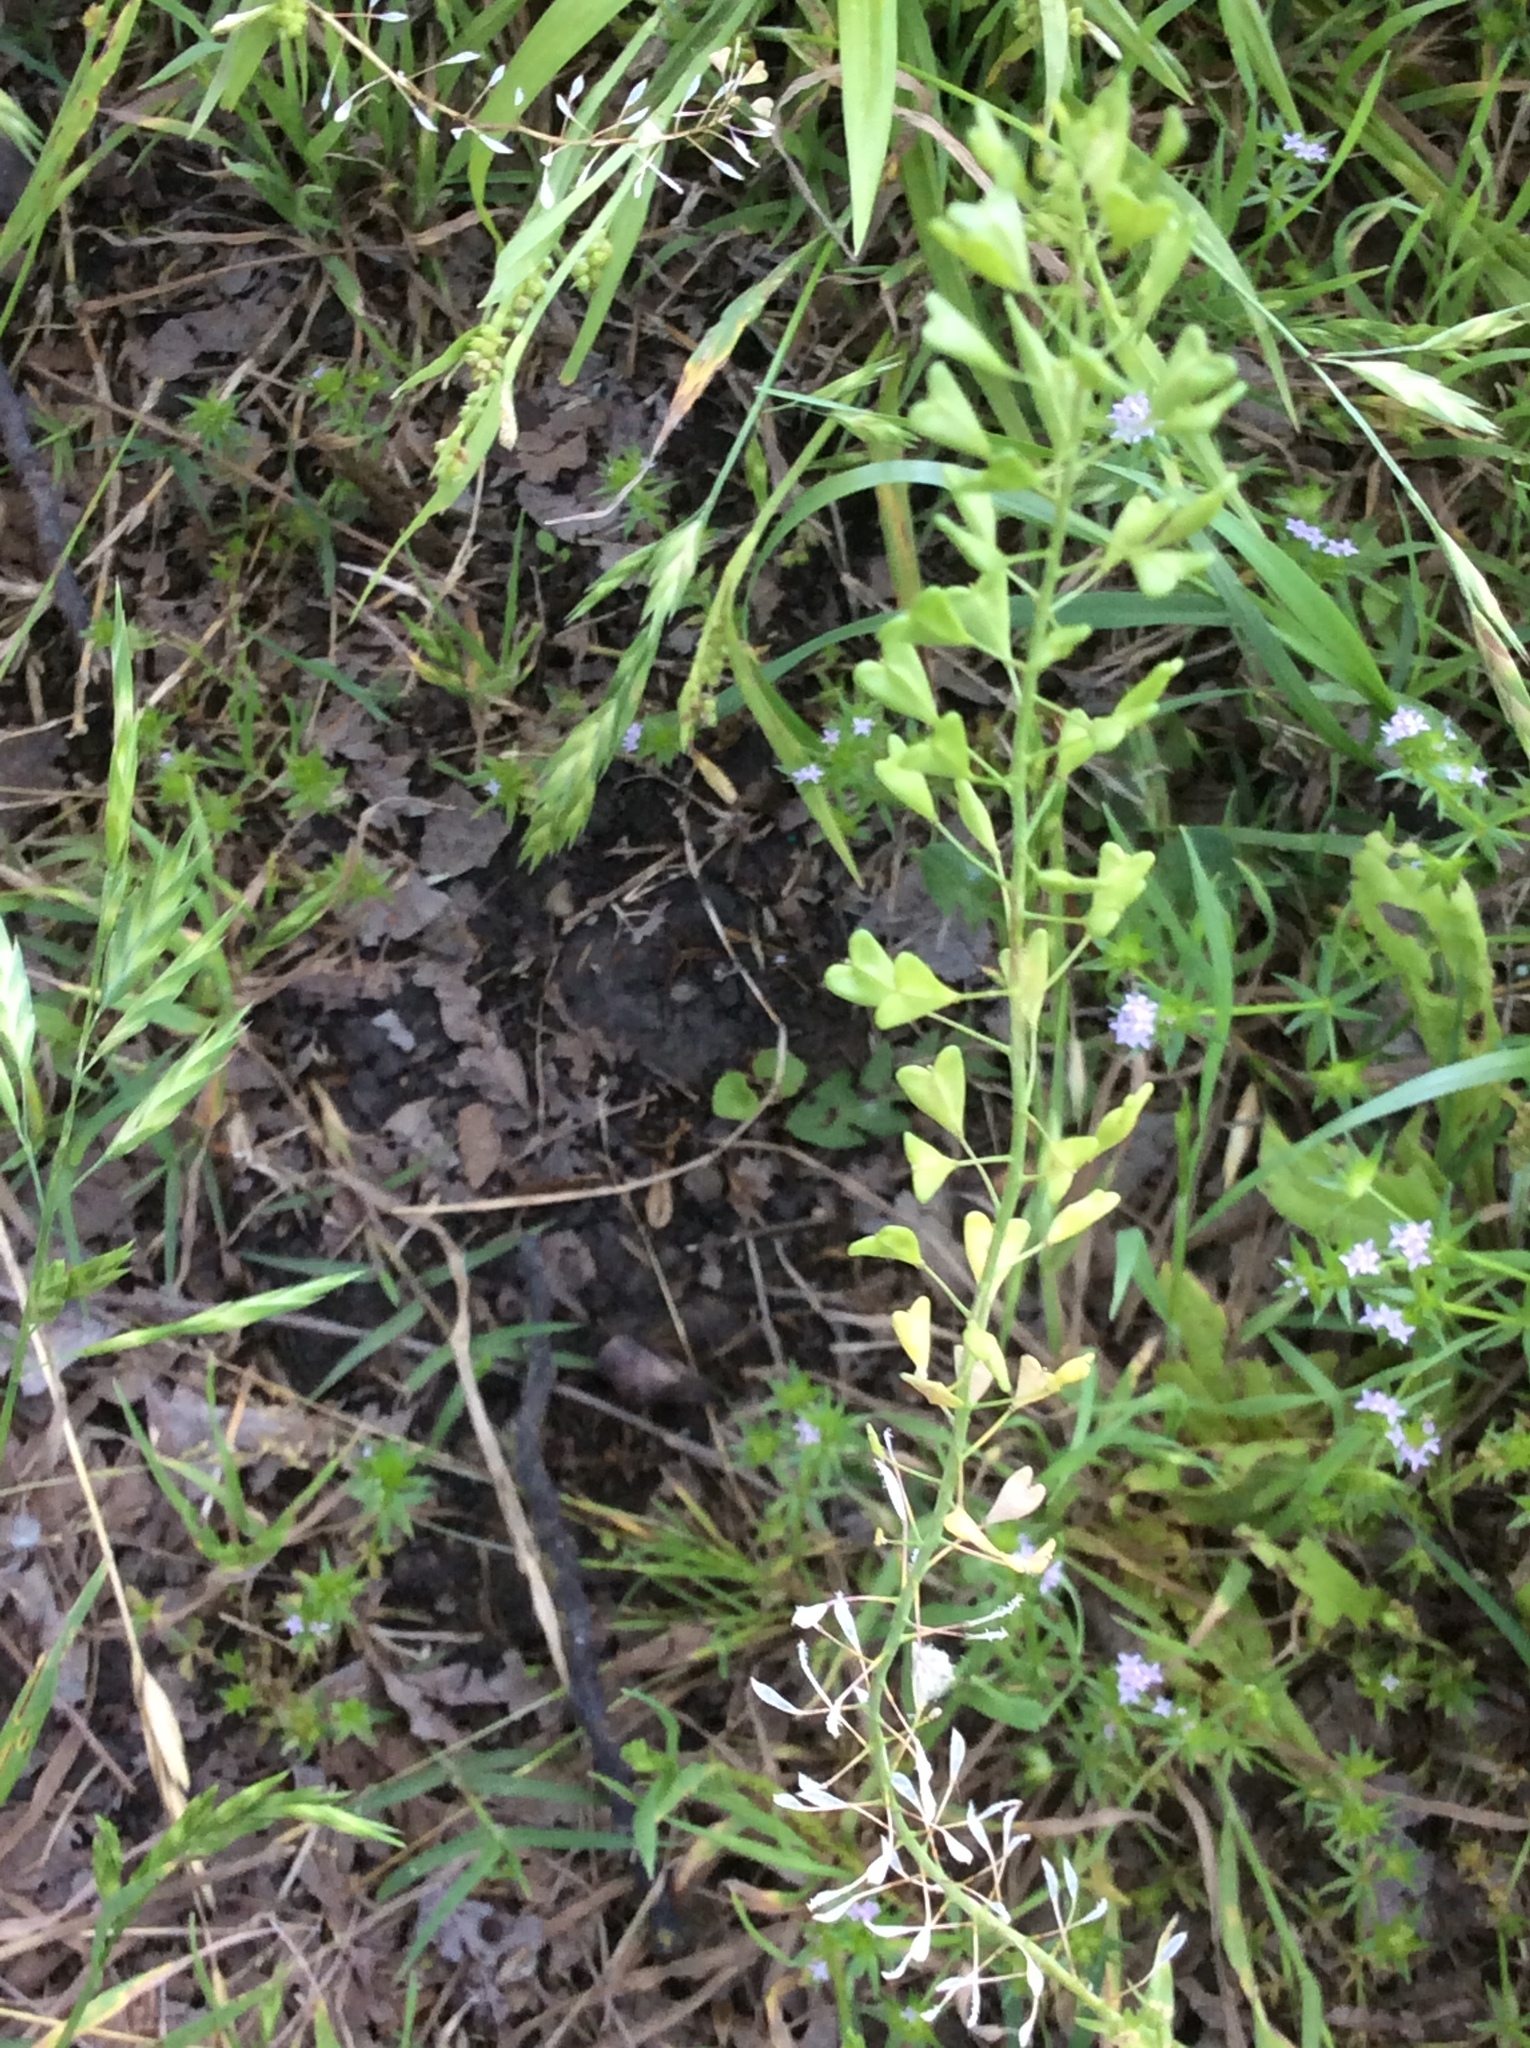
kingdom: Plantae
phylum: Tracheophyta
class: Magnoliopsida
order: Brassicales
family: Brassicaceae
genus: Lepidium
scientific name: Lepidium virginicum
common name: Least pepperwort
